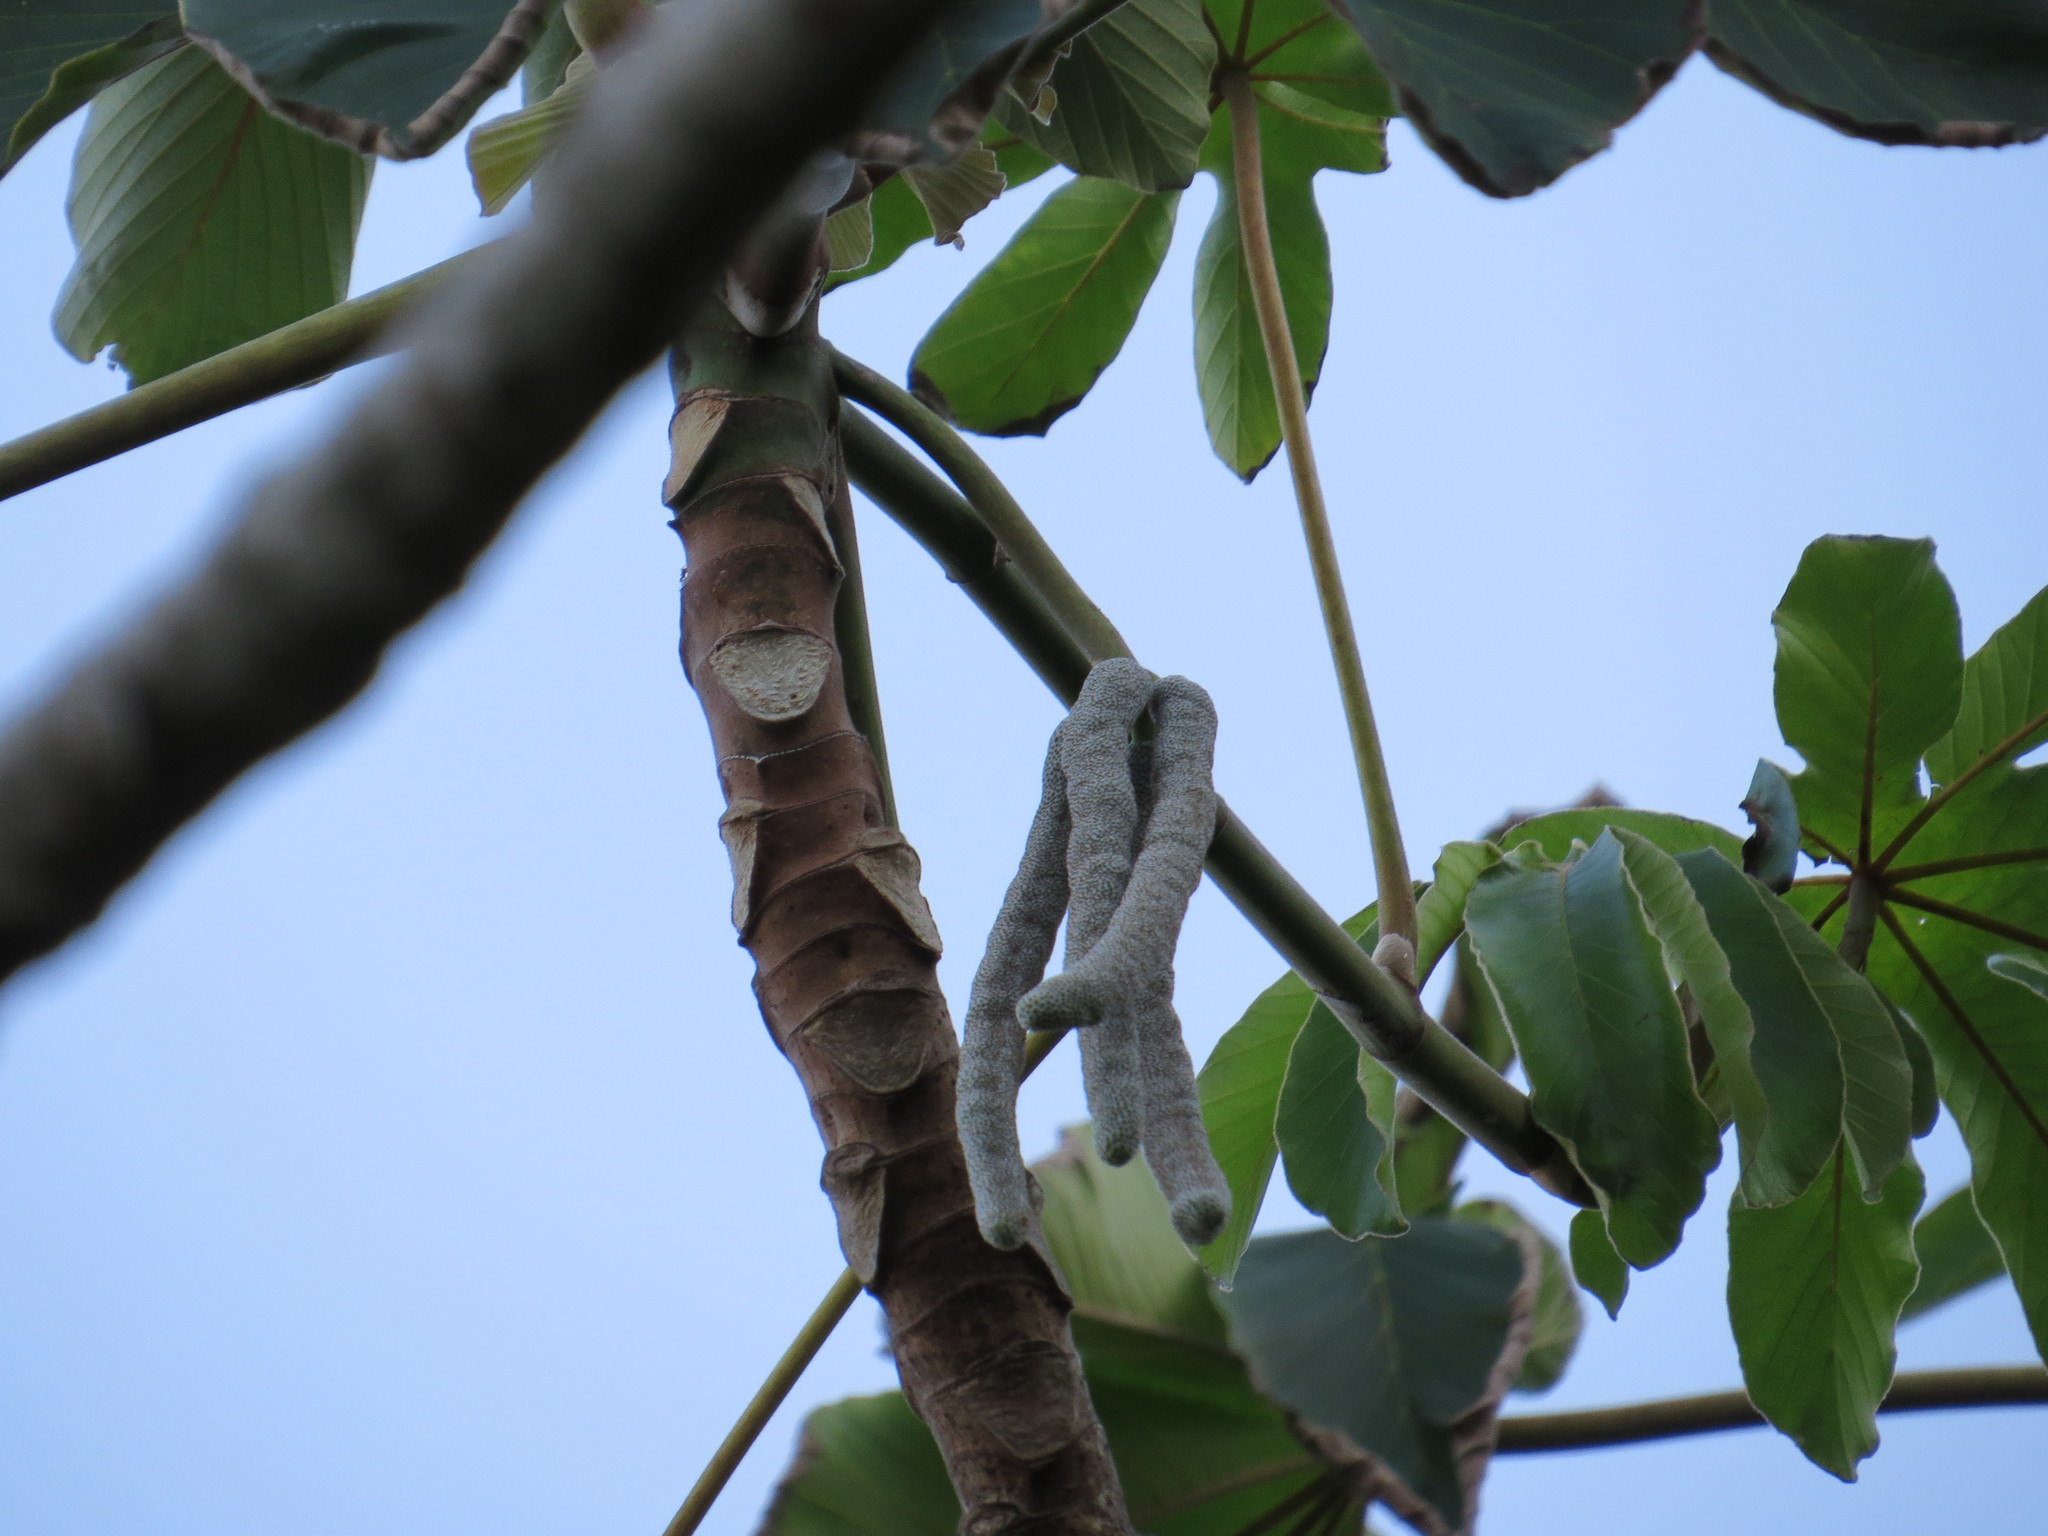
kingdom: Plantae
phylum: Tracheophyta
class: Magnoliopsida
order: Rosales
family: Urticaceae
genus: Cecropia
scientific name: Cecropia pachystachya
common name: Ambay pumpwood
